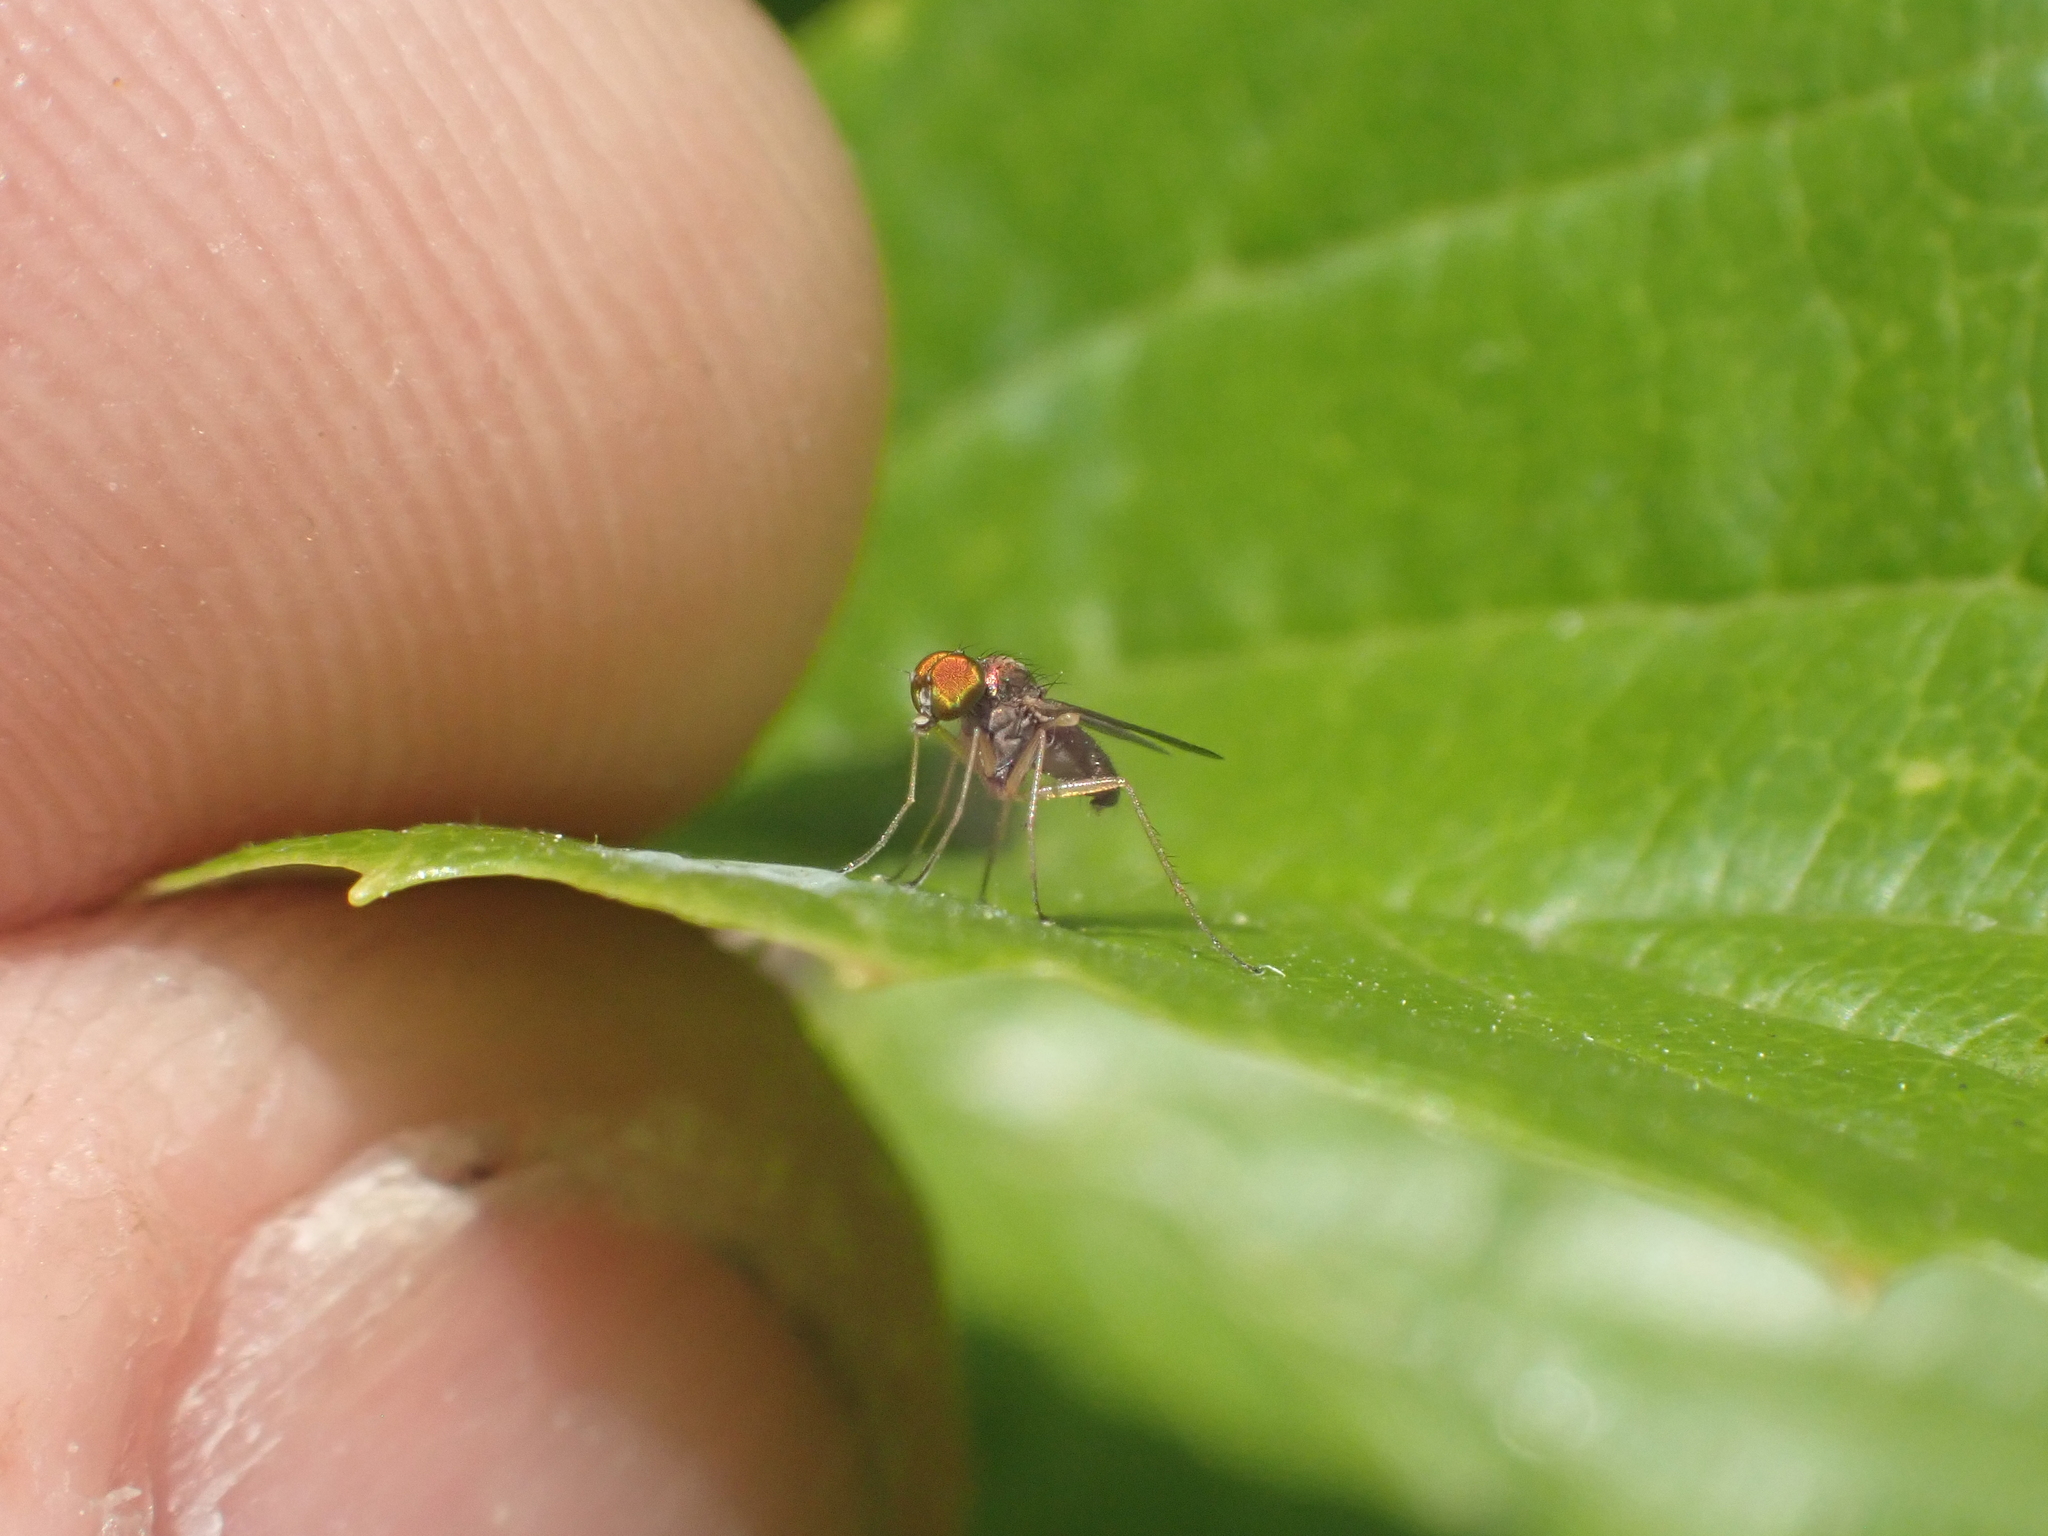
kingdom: Animalia
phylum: Arthropoda
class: Insecta
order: Diptera
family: Dolichopodidae
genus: Chrysotus
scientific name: Chrysotus
